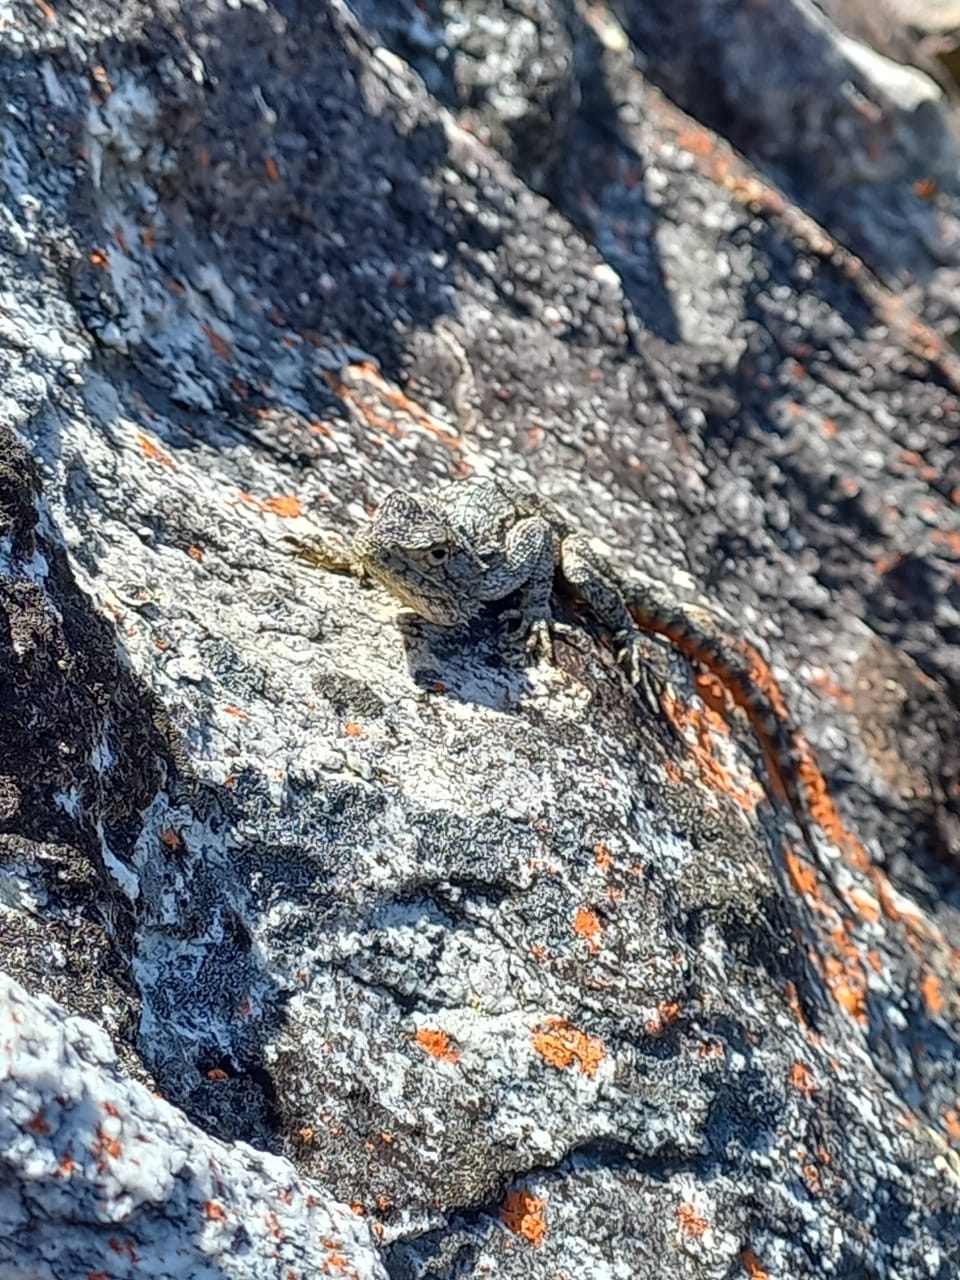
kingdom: Animalia
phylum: Chordata
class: Squamata
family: Agamidae
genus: Agama
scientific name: Agama atra
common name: Southern african rock agama
